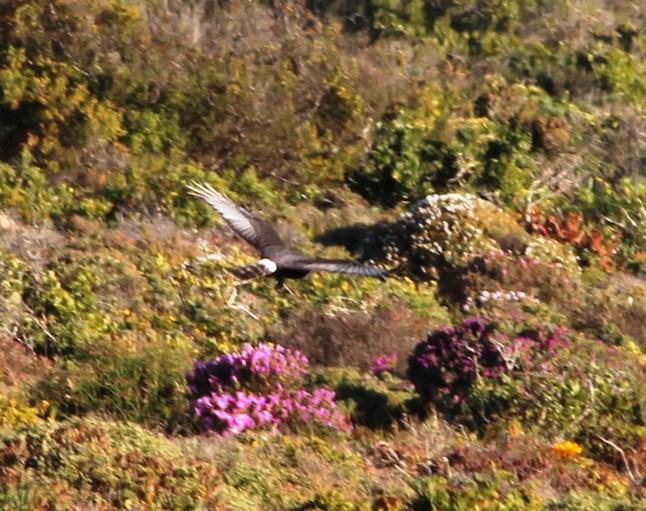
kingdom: Animalia
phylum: Chordata
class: Aves
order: Accipitriformes
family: Accipitridae
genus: Circus
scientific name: Circus maurus
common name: Black harrier
